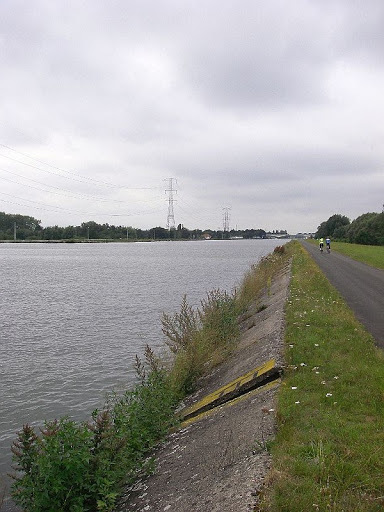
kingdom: Animalia
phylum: Arthropoda
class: Insecta
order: Odonata
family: Gomphidae
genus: Stylurus
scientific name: Stylurus flavipes
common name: River clubtail
